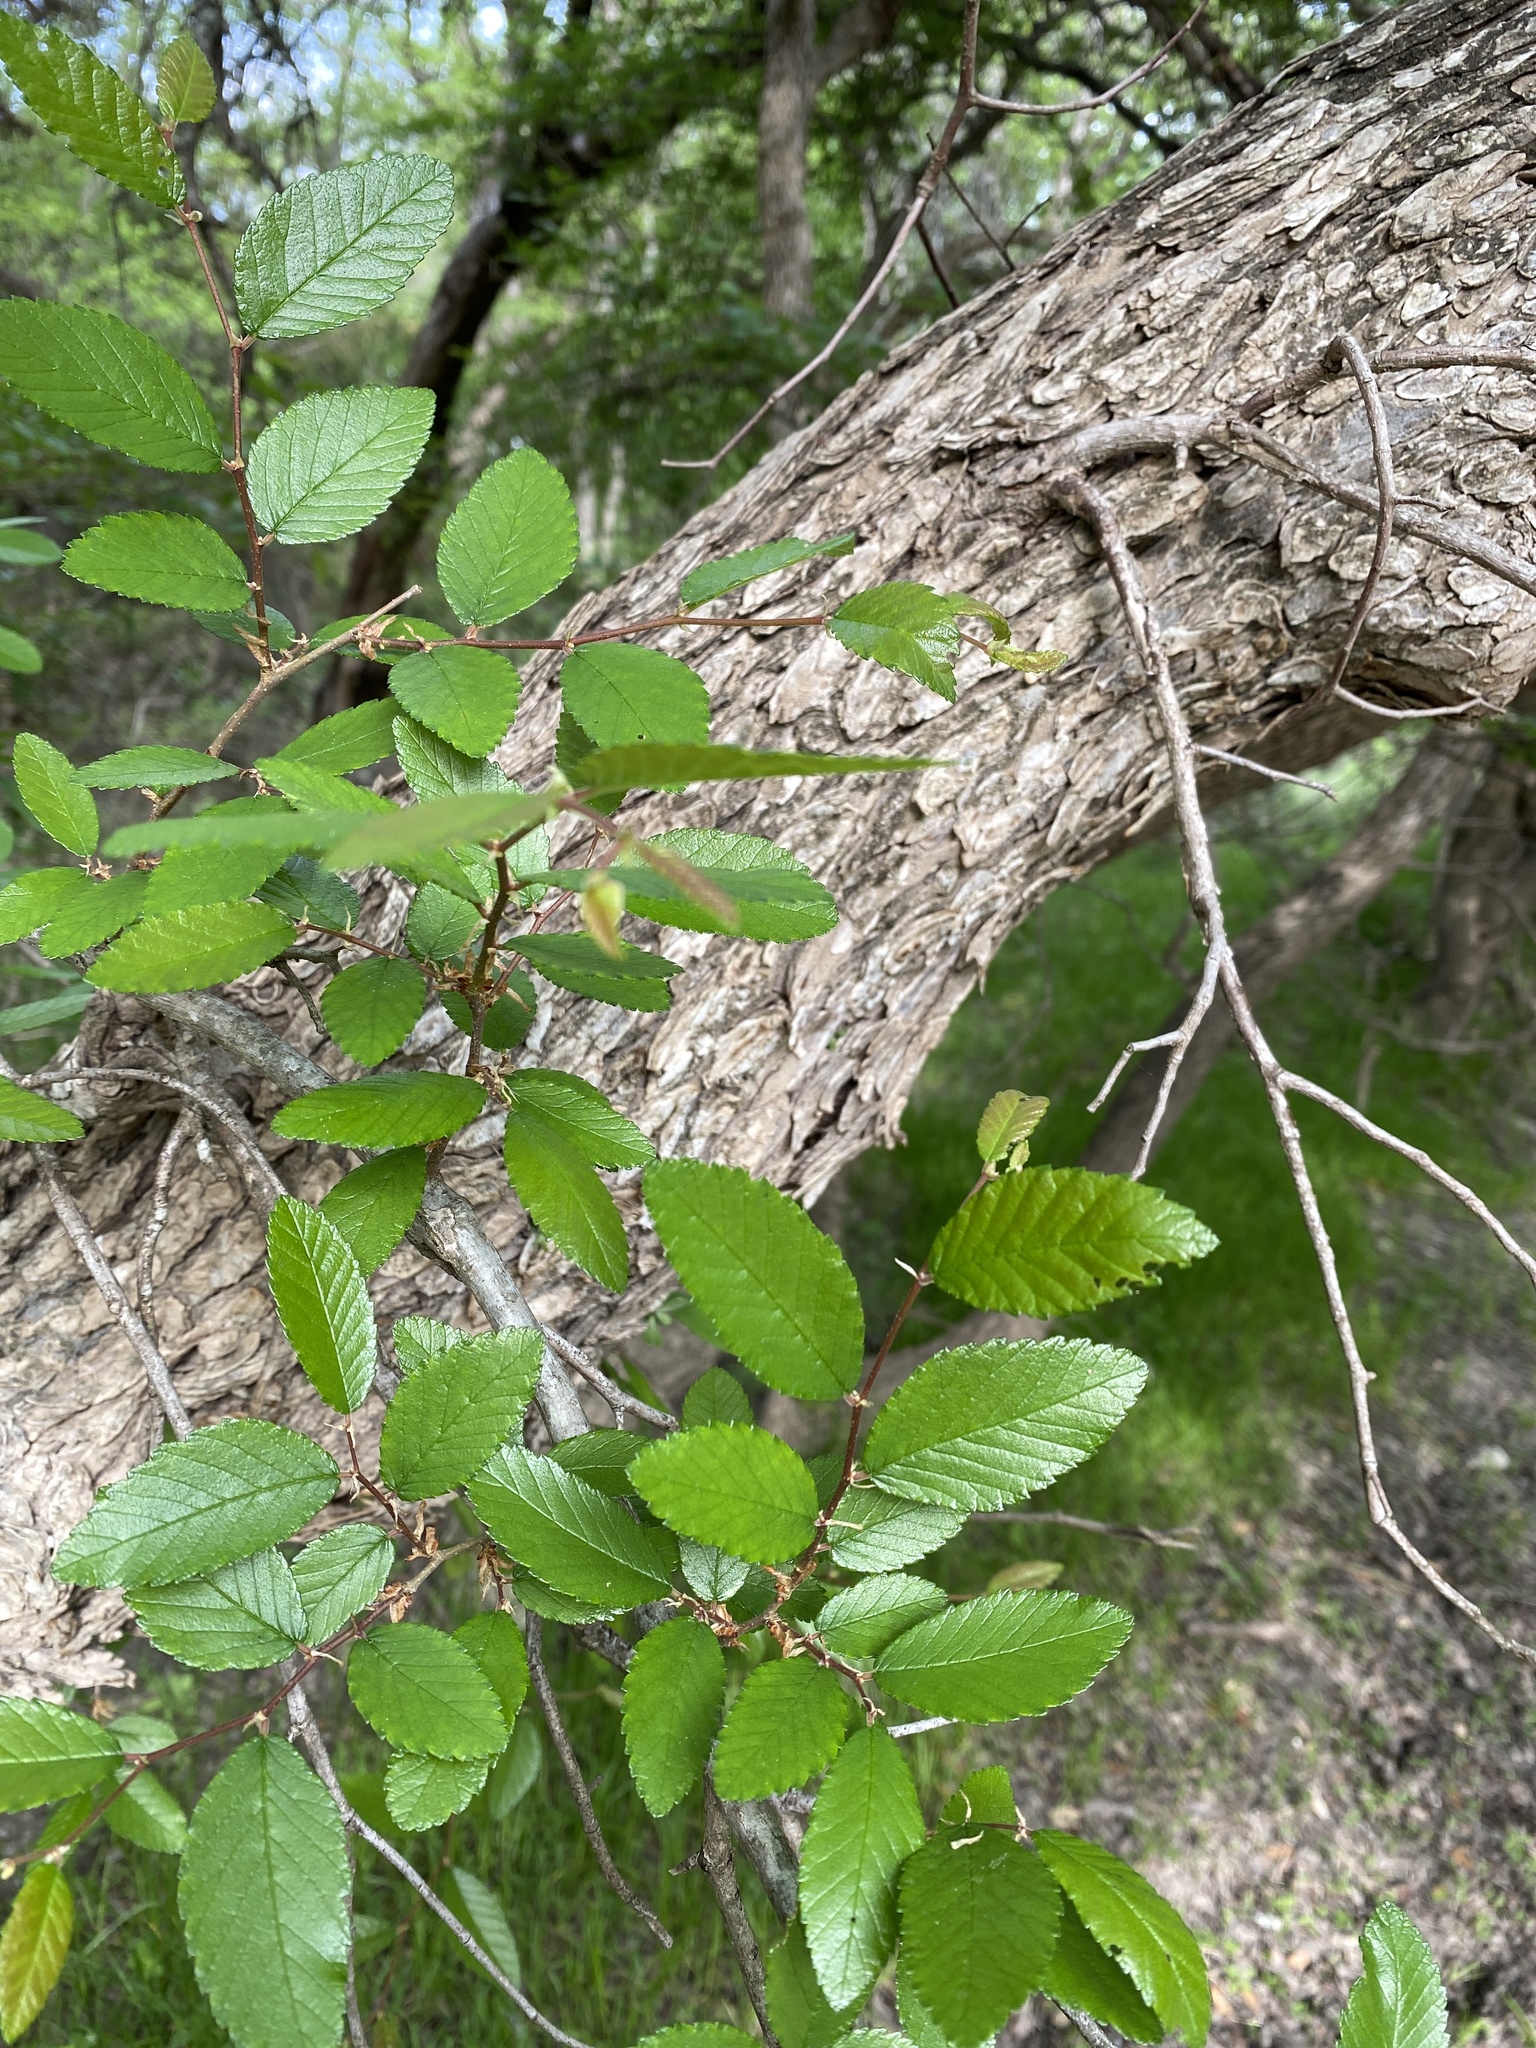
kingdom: Plantae
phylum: Tracheophyta
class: Magnoliopsida
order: Rosales
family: Ulmaceae
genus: Ulmus
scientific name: Ulmus crassifolia
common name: Basket elm
